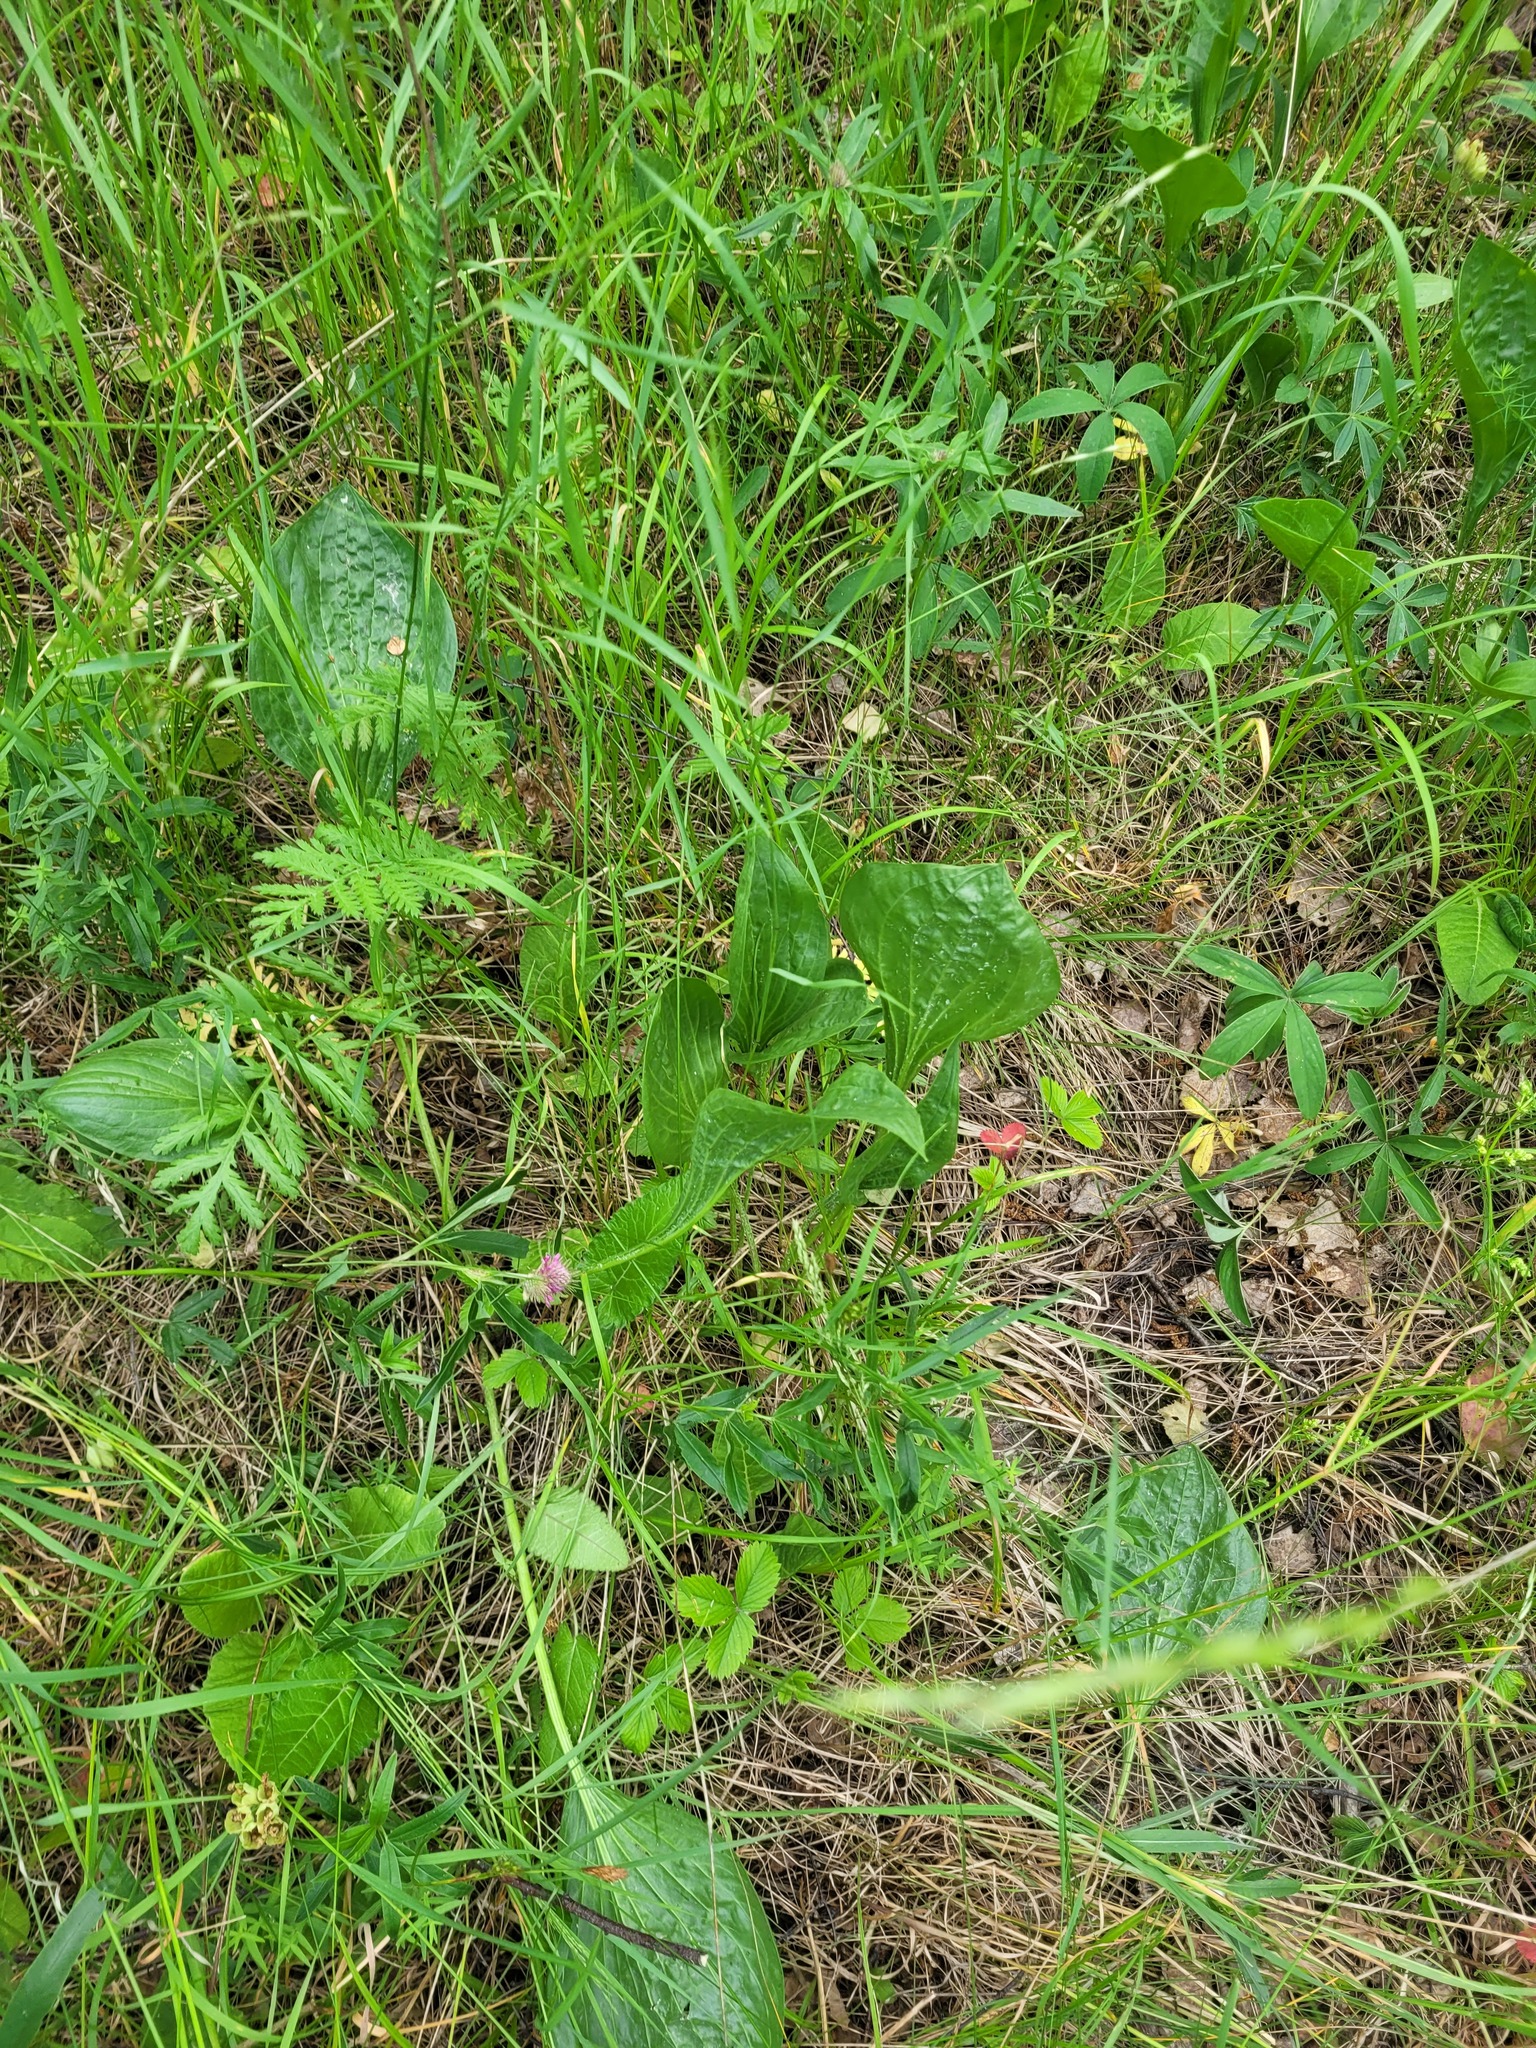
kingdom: Plantae
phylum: Tracheophyta
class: Magnoliopsida
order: Asterales
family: Asteraceae
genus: Scorzonera
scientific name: Scorzonera humilis
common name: Viper's-grass
